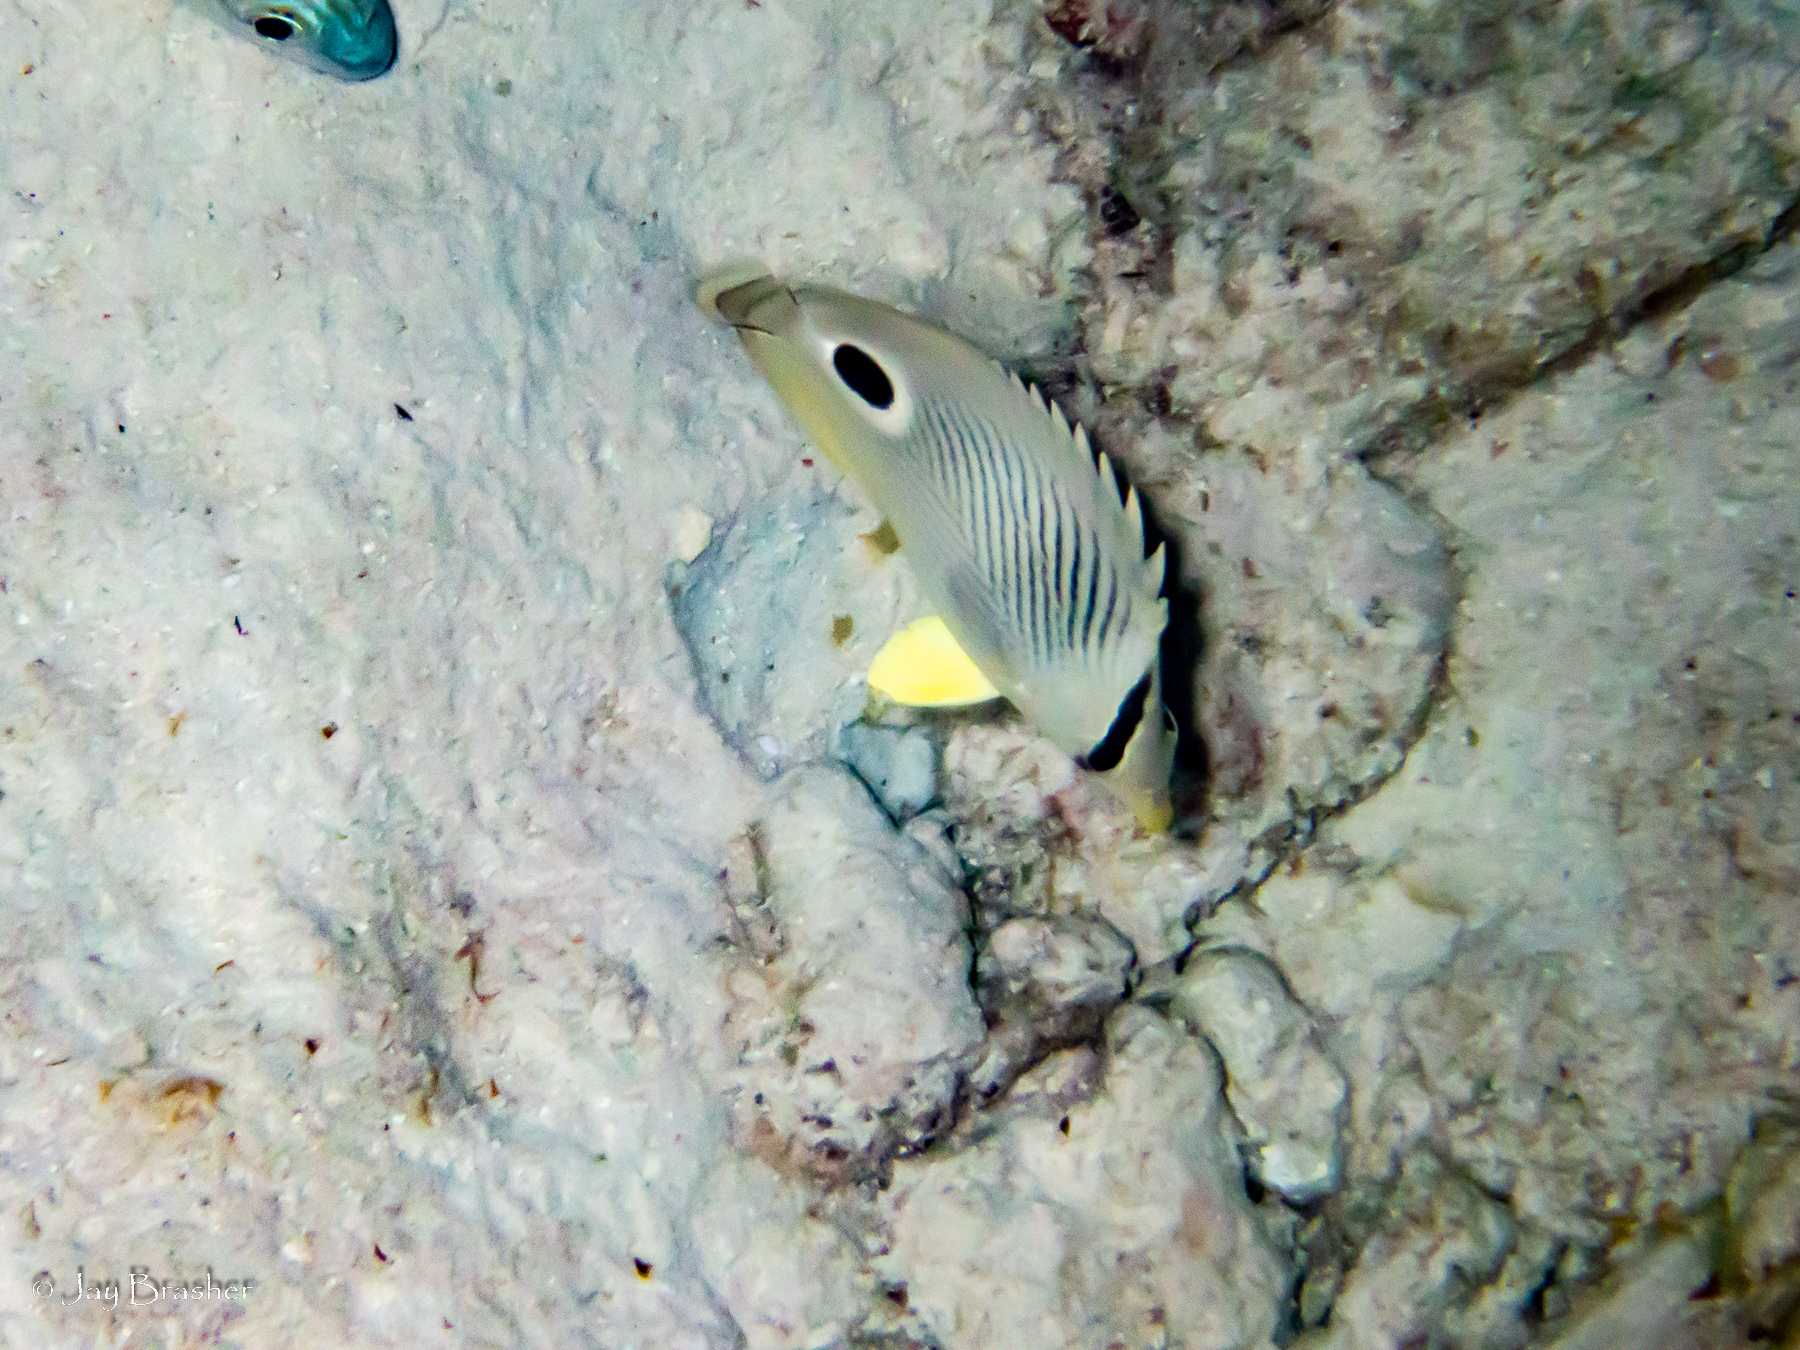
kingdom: Animalia
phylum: Chordata
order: Perciformes
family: Chaetodontidae
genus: Chaetodon
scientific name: Chaetodon capistratus
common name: Kete
